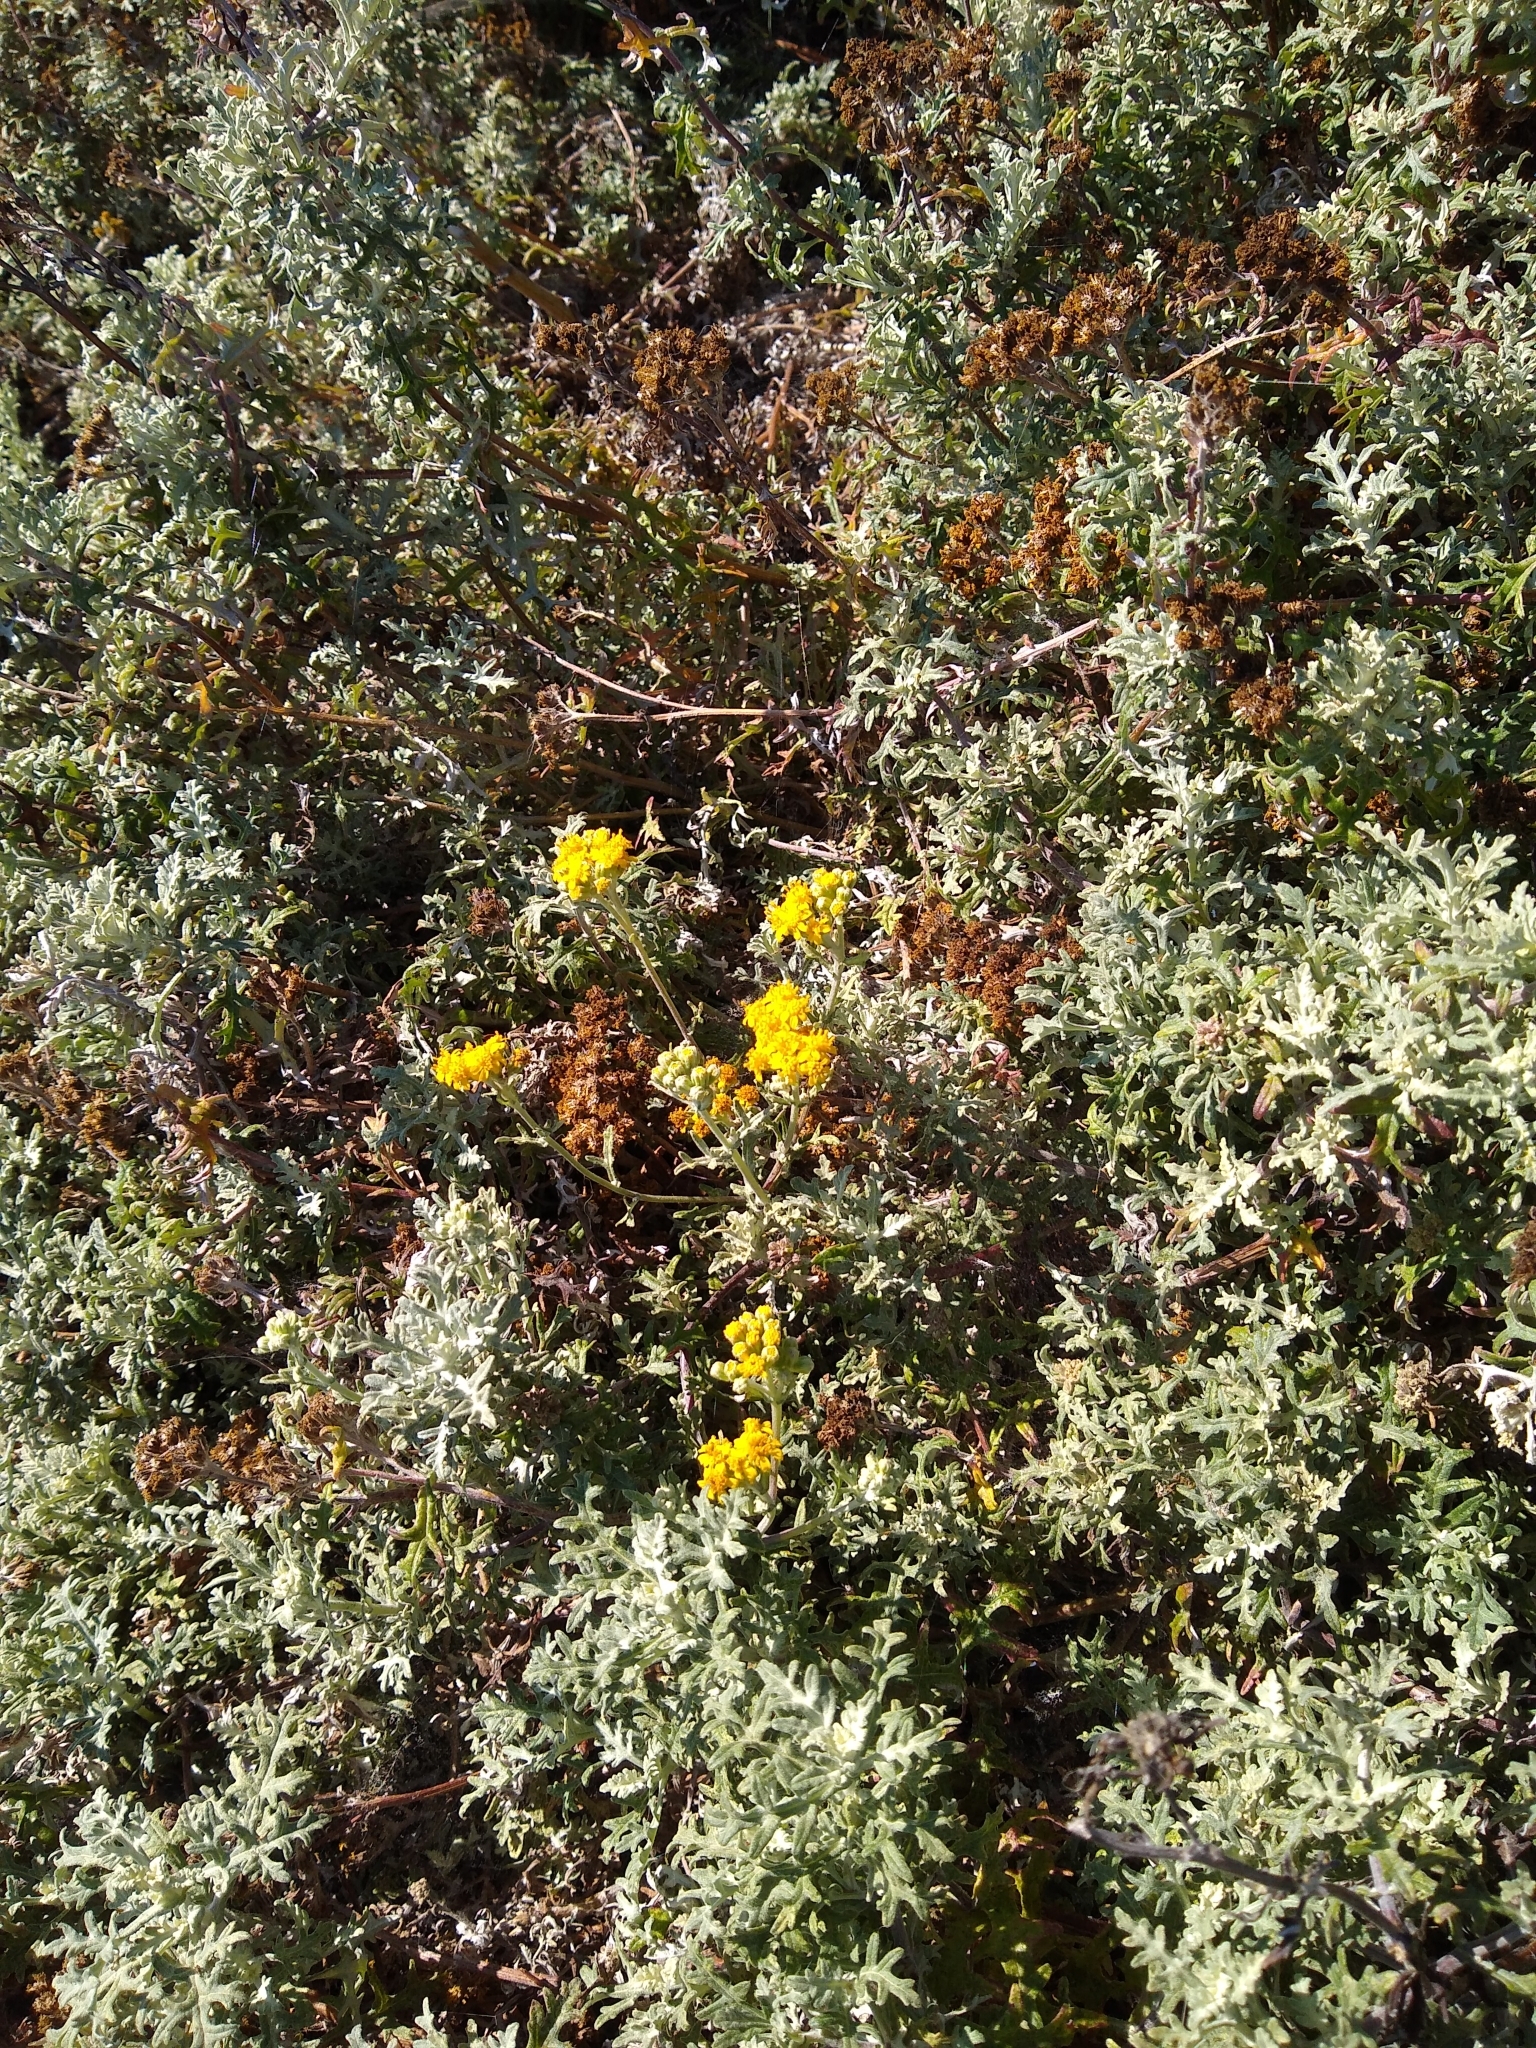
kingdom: Plantae
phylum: Tracheophyta
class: Magnoliopsida
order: Asterales
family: Asteraceae
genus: Eriophyllum
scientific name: Eriophyllum staechadifolium
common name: Lizardtail
